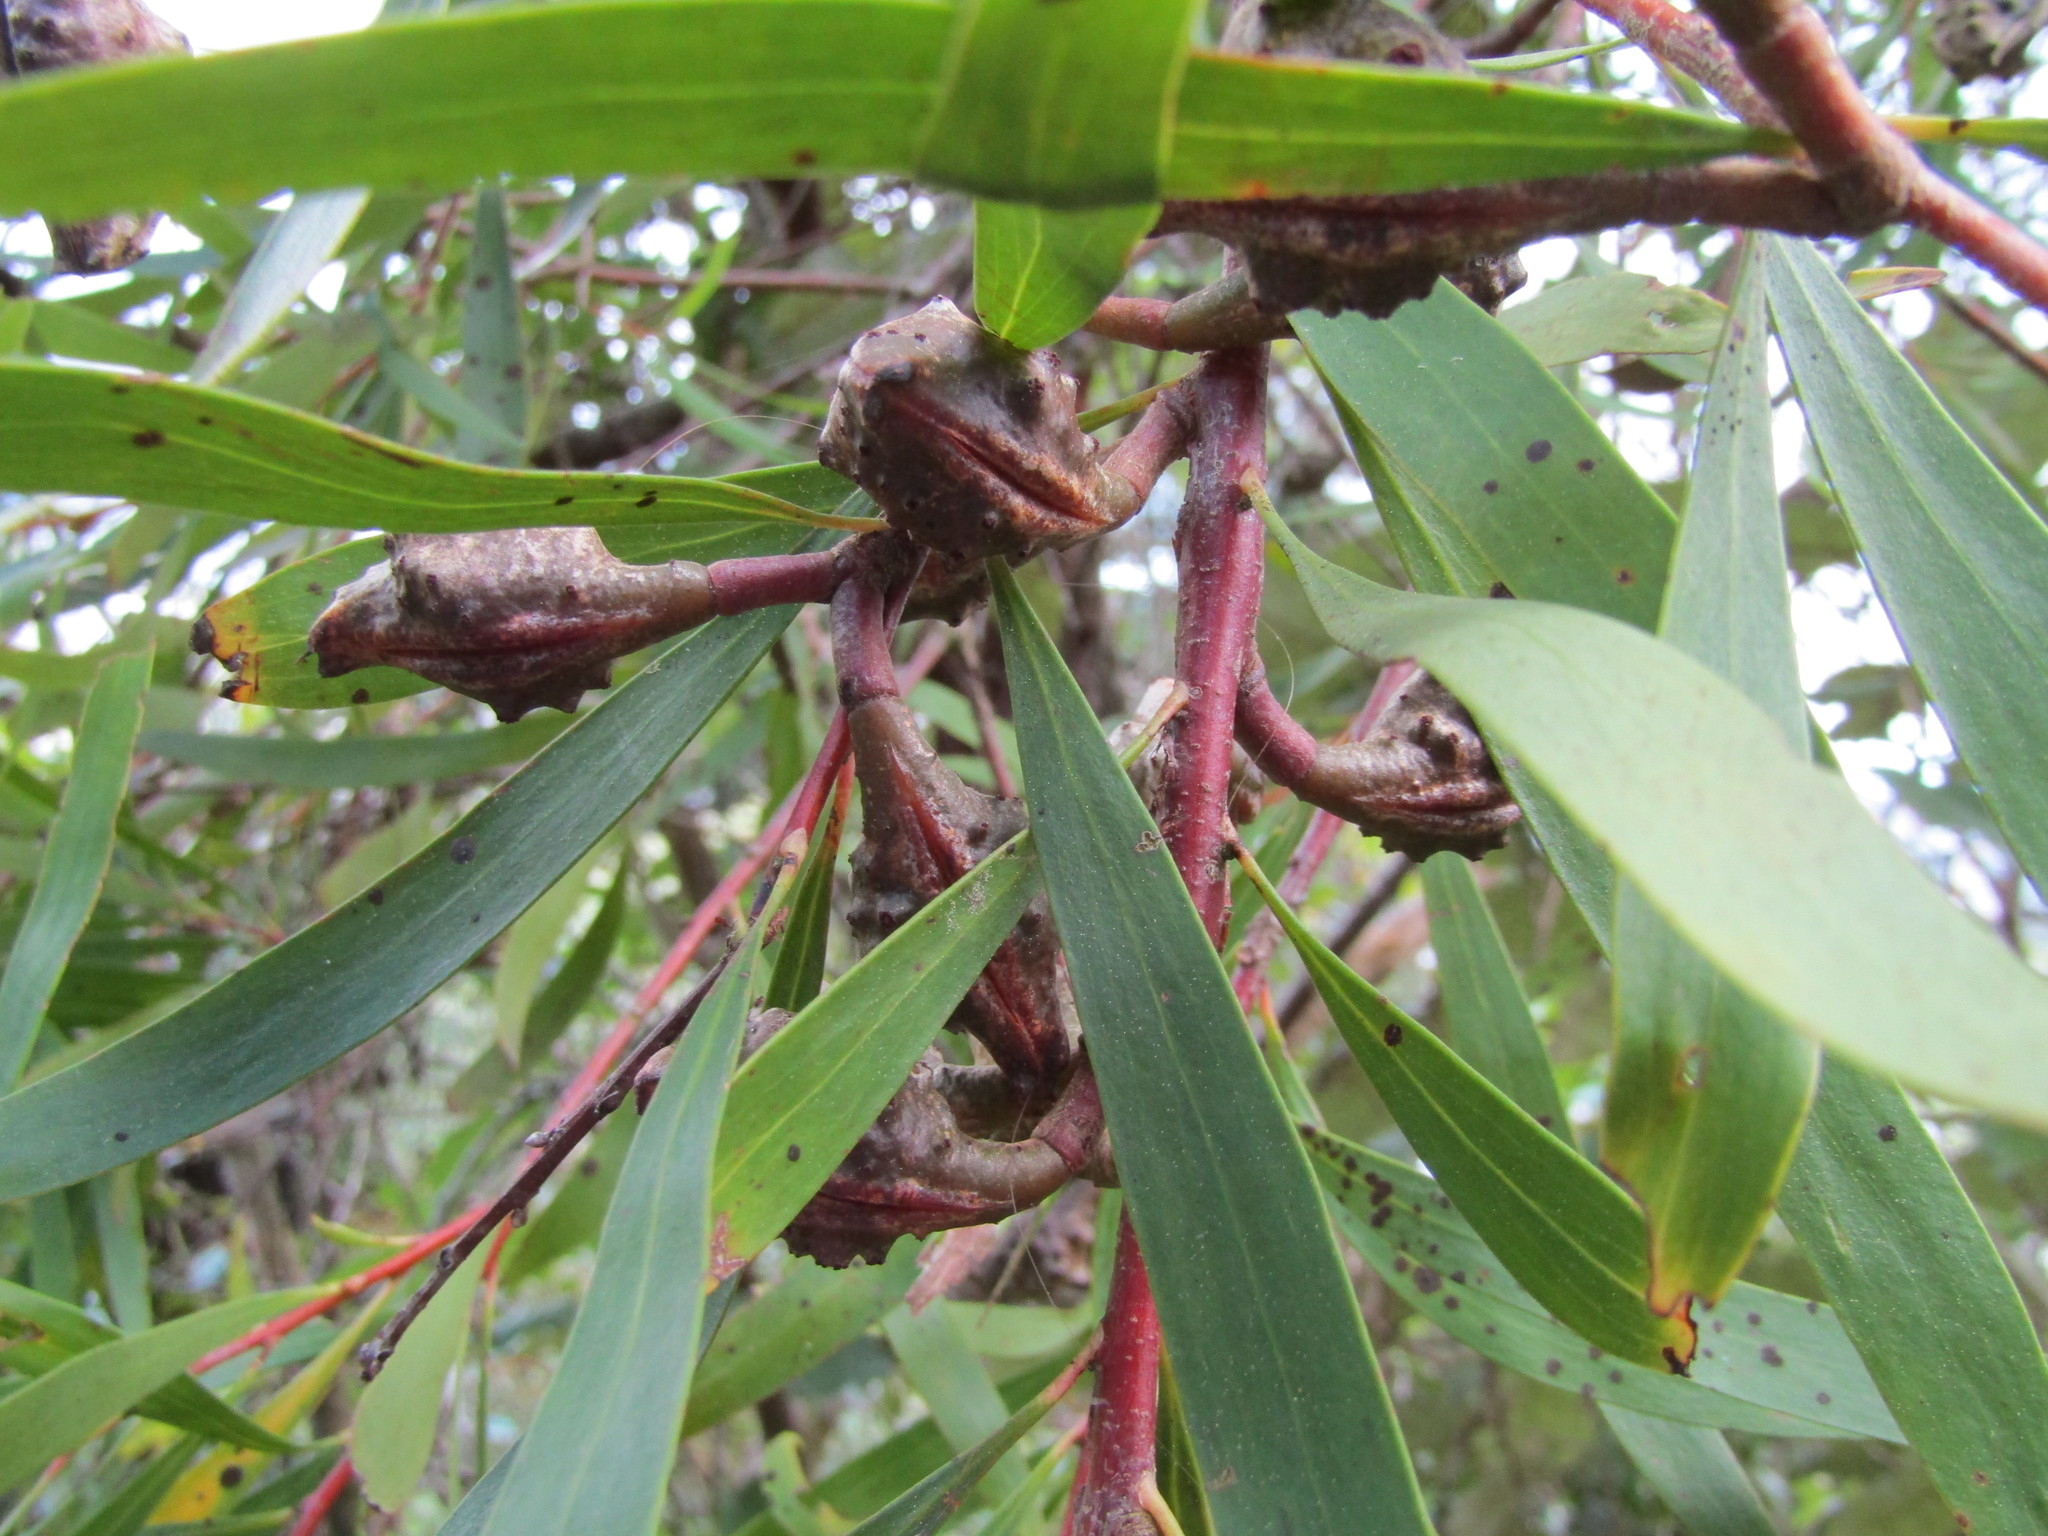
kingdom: Plantae
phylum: Tracheophyta
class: Magnoliopsida
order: Proteales
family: Proteaceae
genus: Hakea
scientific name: Hakea salicifolia
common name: Willow hakea
